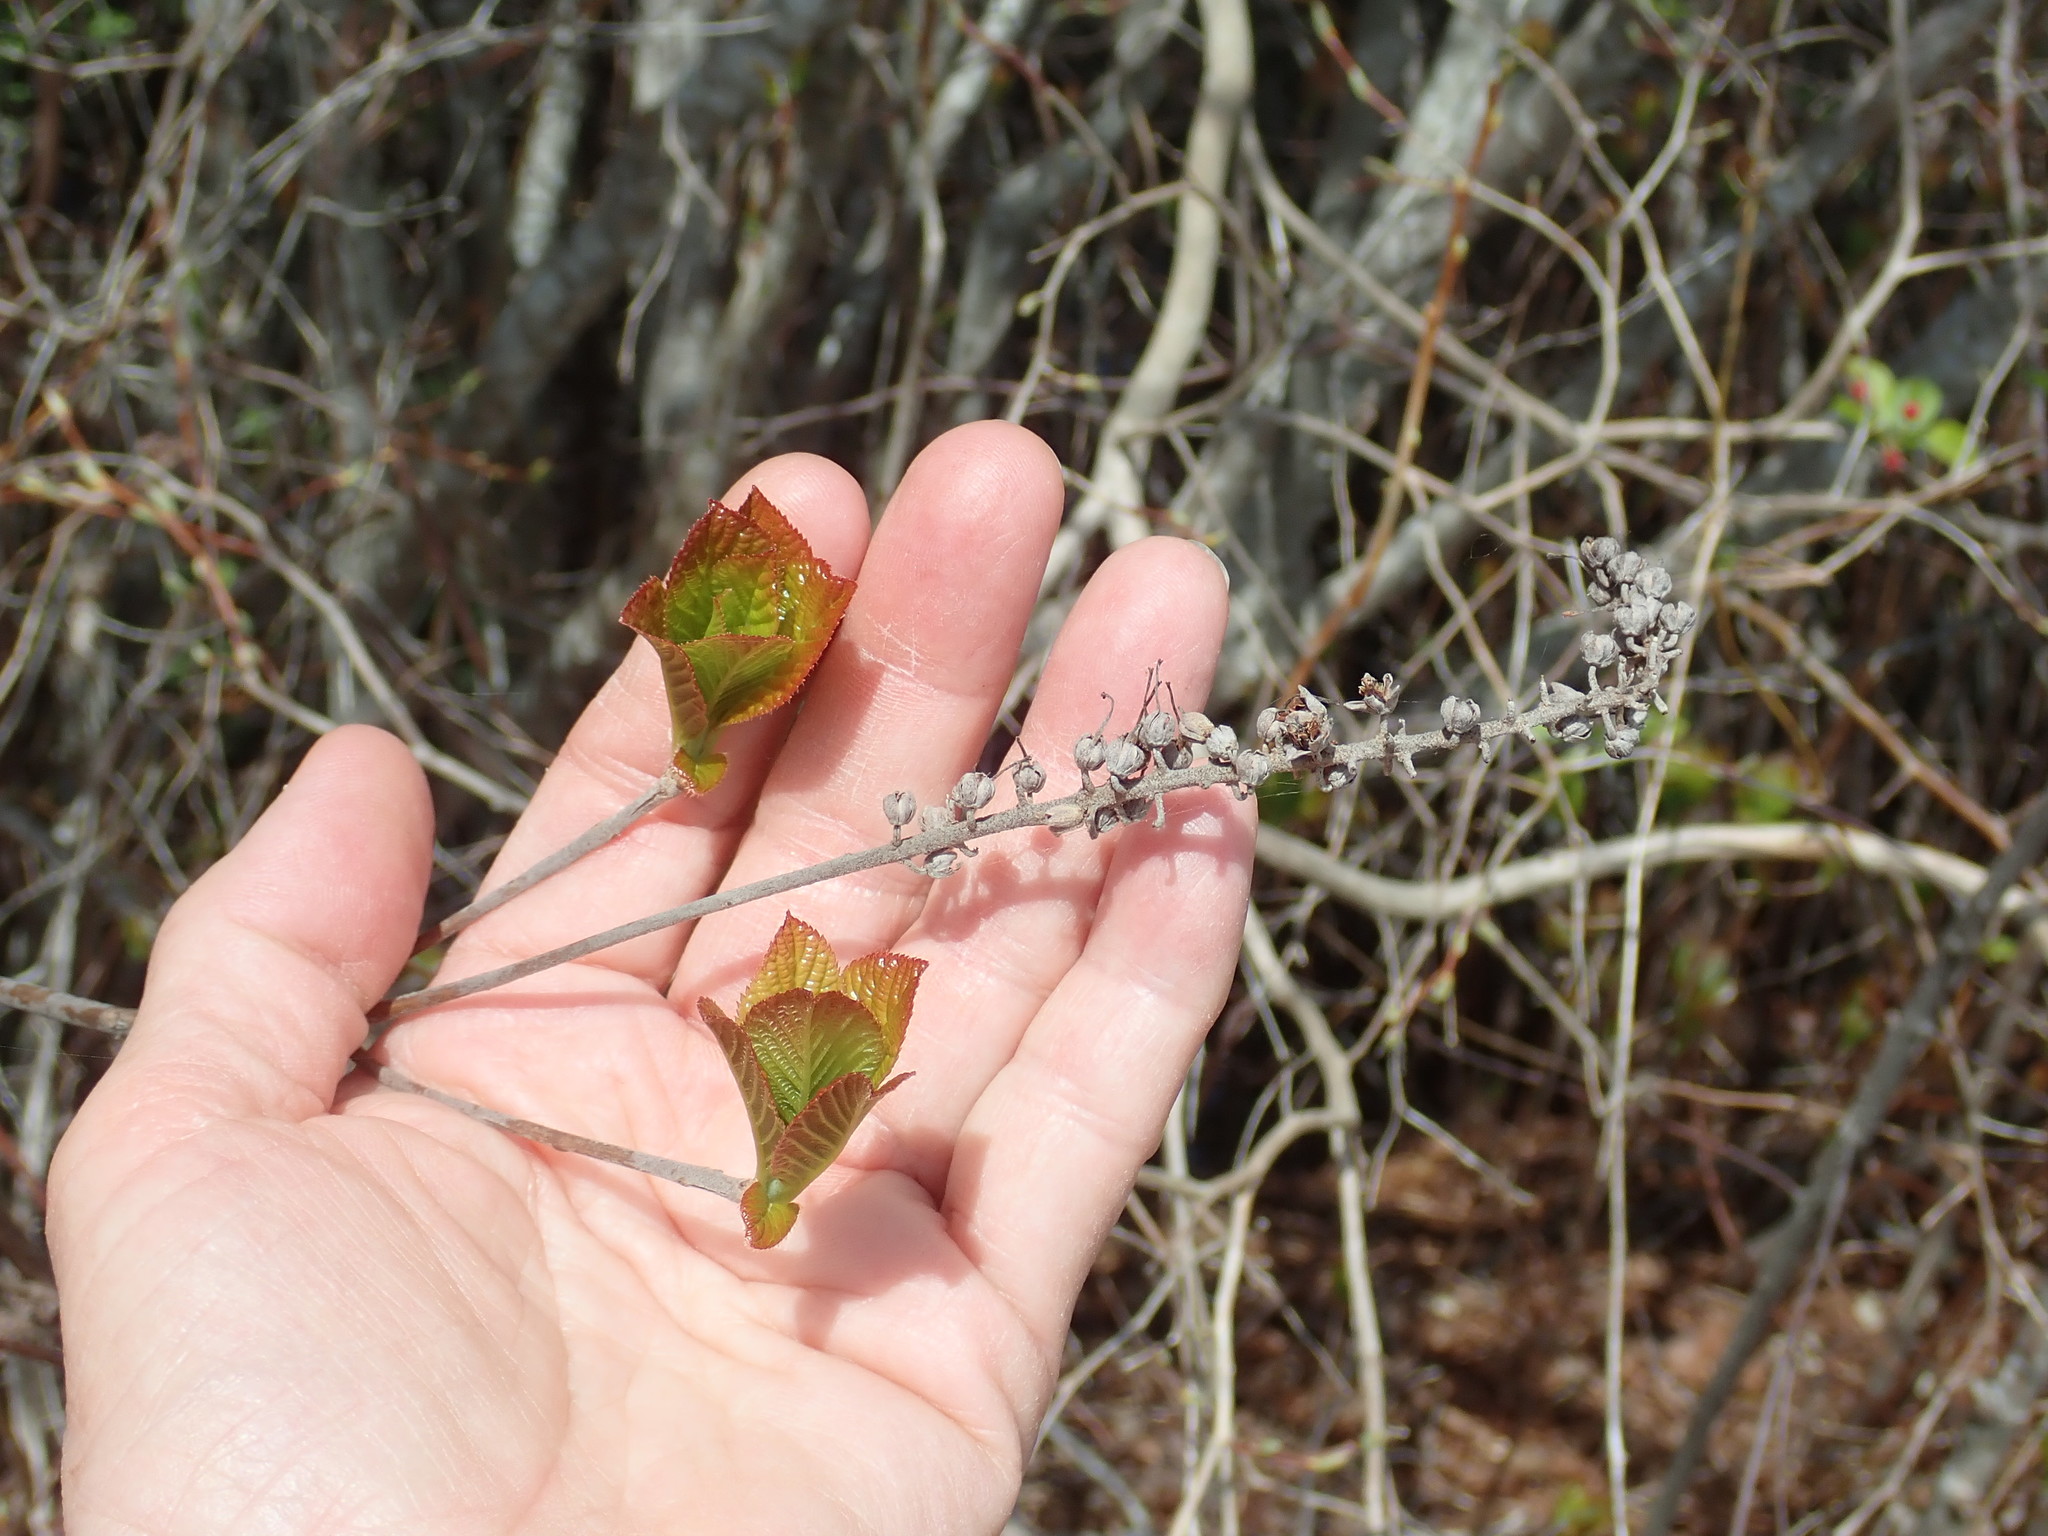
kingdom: Plantae
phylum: Tracheophyta
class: Magnoliopsida
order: Ericales
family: Clethraceae
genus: Clethra
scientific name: Clethra alnifolia
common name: Sweet pepperbush
